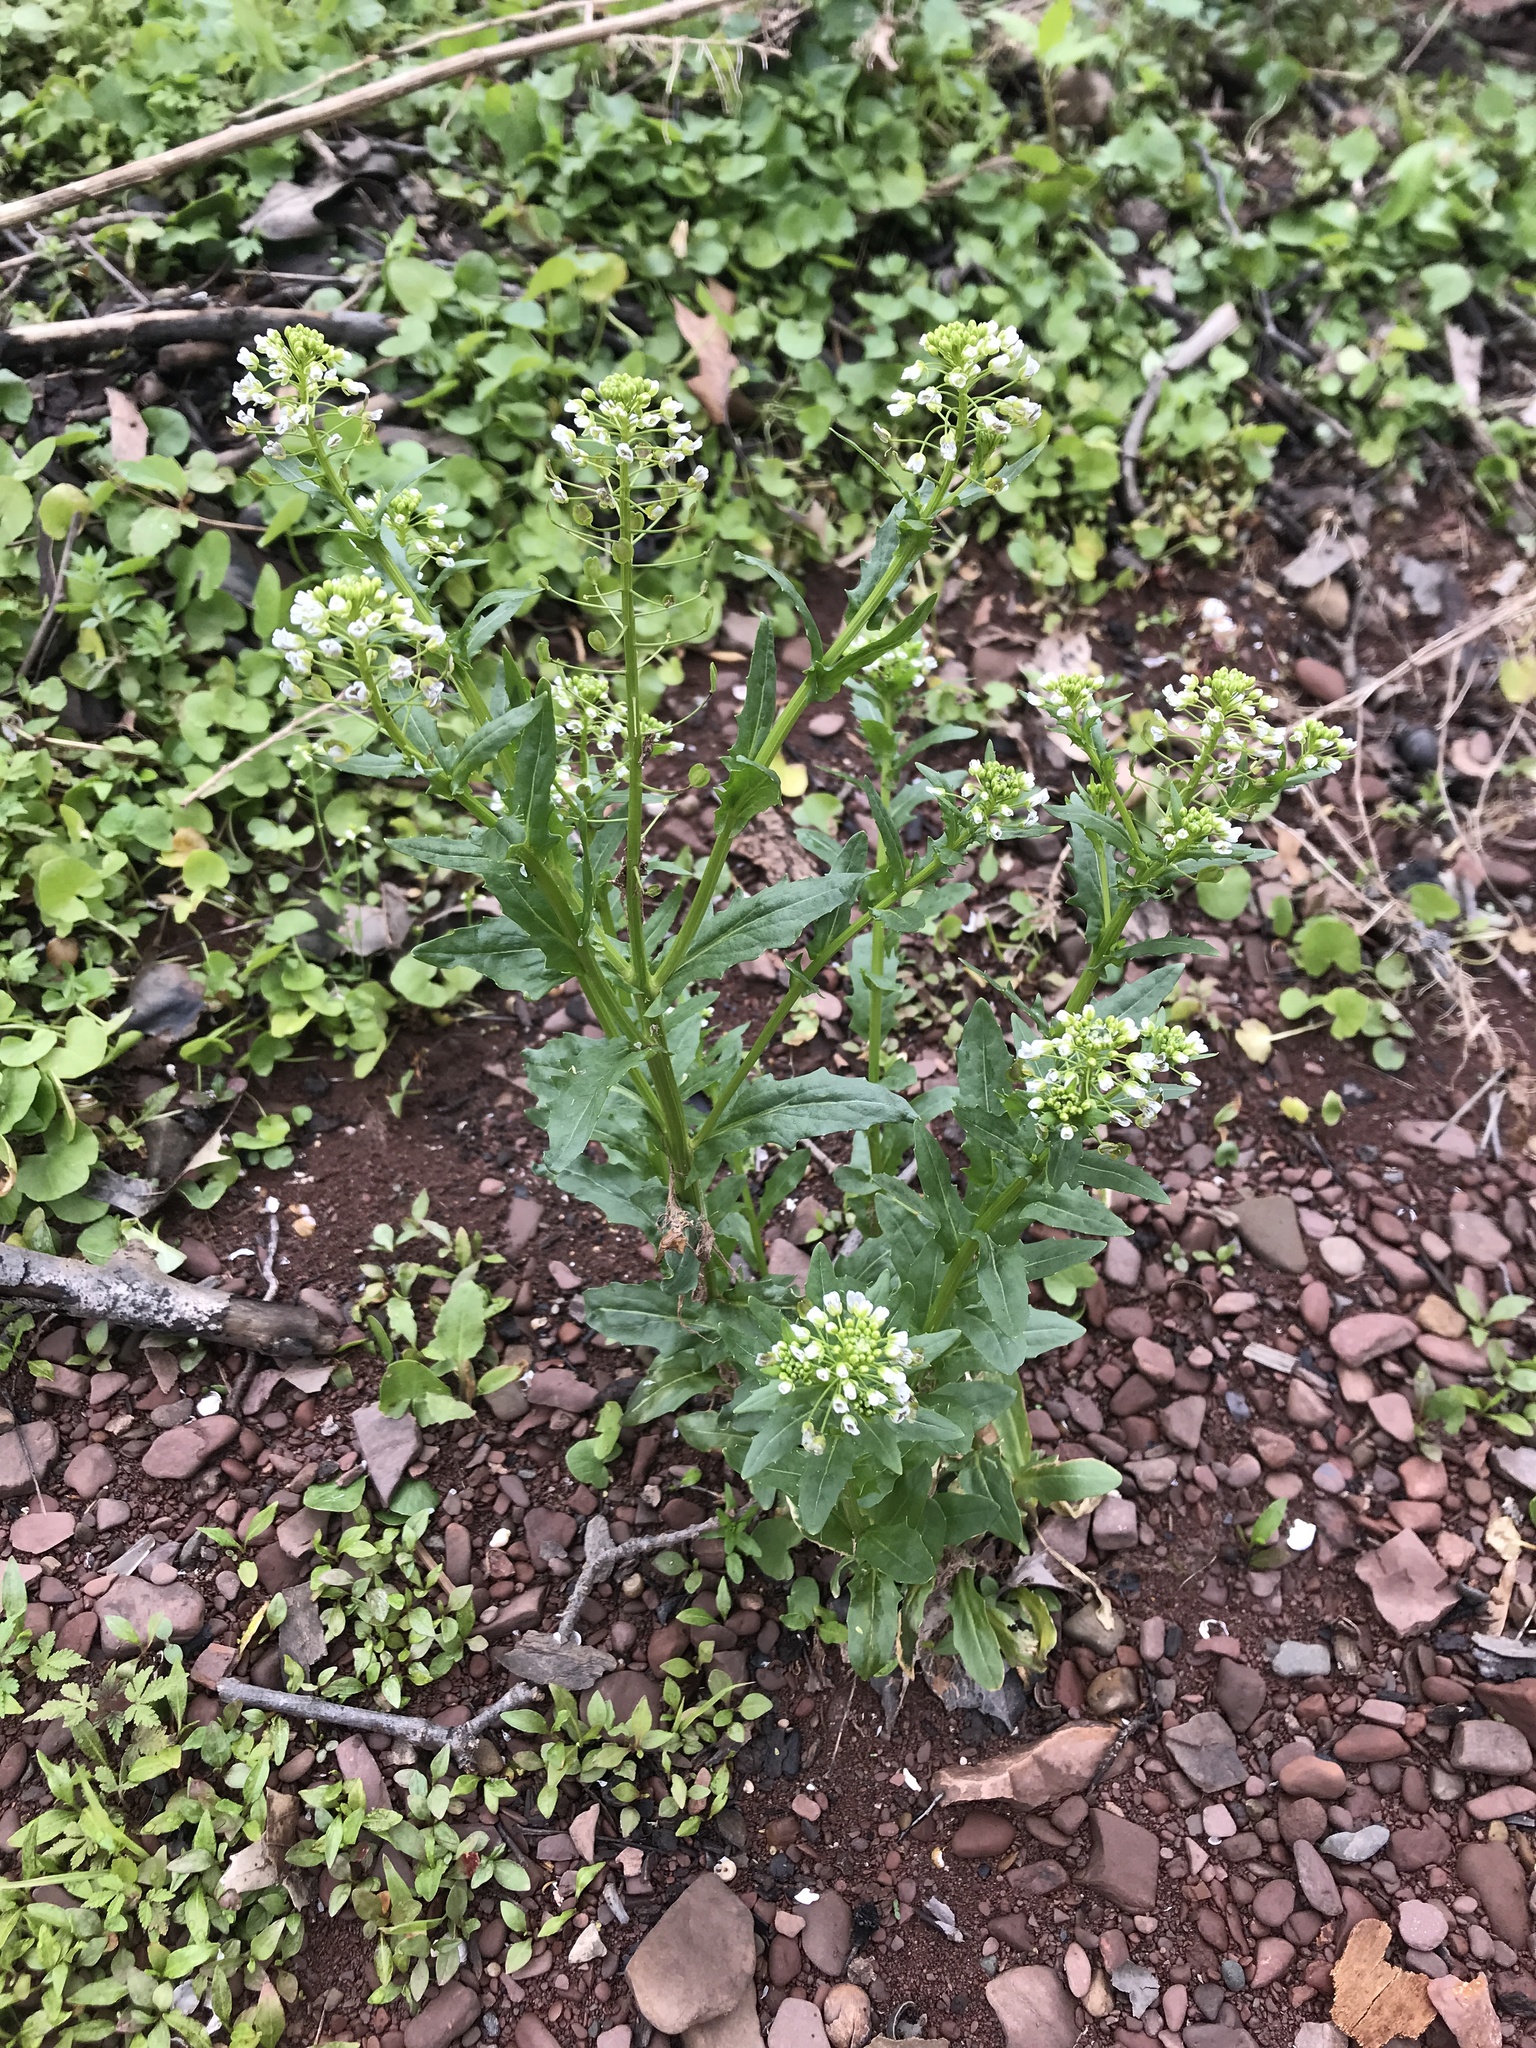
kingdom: Plantae
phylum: Tracheophyta
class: Magnoliopsida
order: Brassicales
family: Brassicaceae
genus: Thlaspi
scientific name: Thlaspi arvense
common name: Field pennycress
